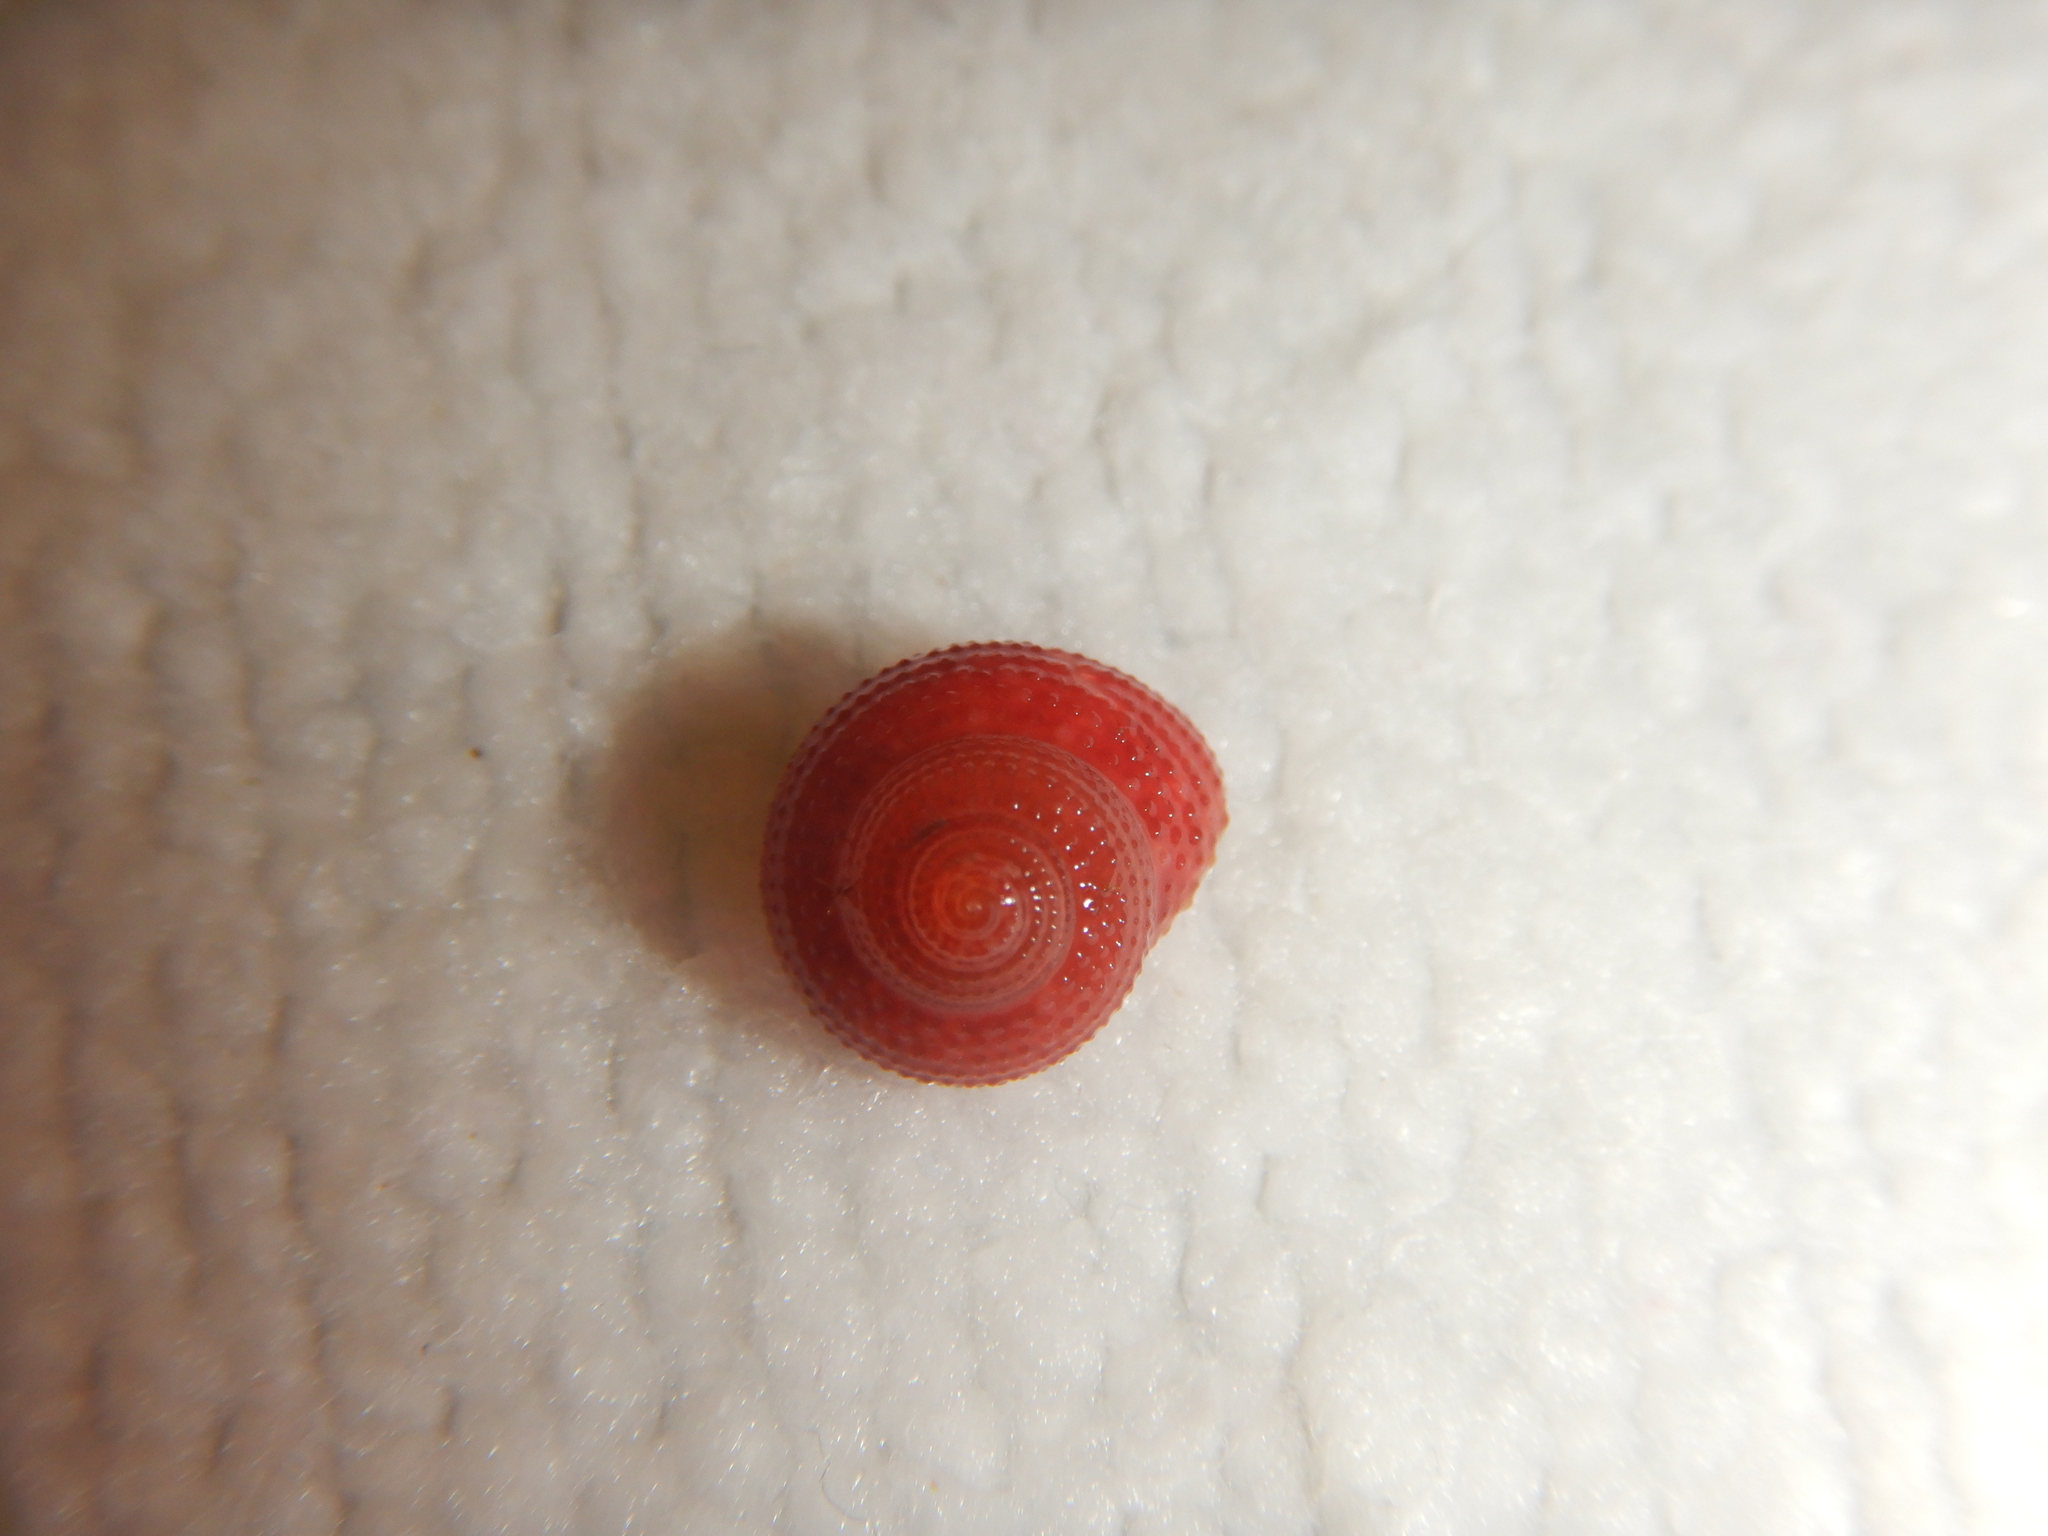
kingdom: Animalia
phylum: Mollusca
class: Gastropoda
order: Trochida
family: Trochidae
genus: Clanculus
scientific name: Clanculus corallinus
